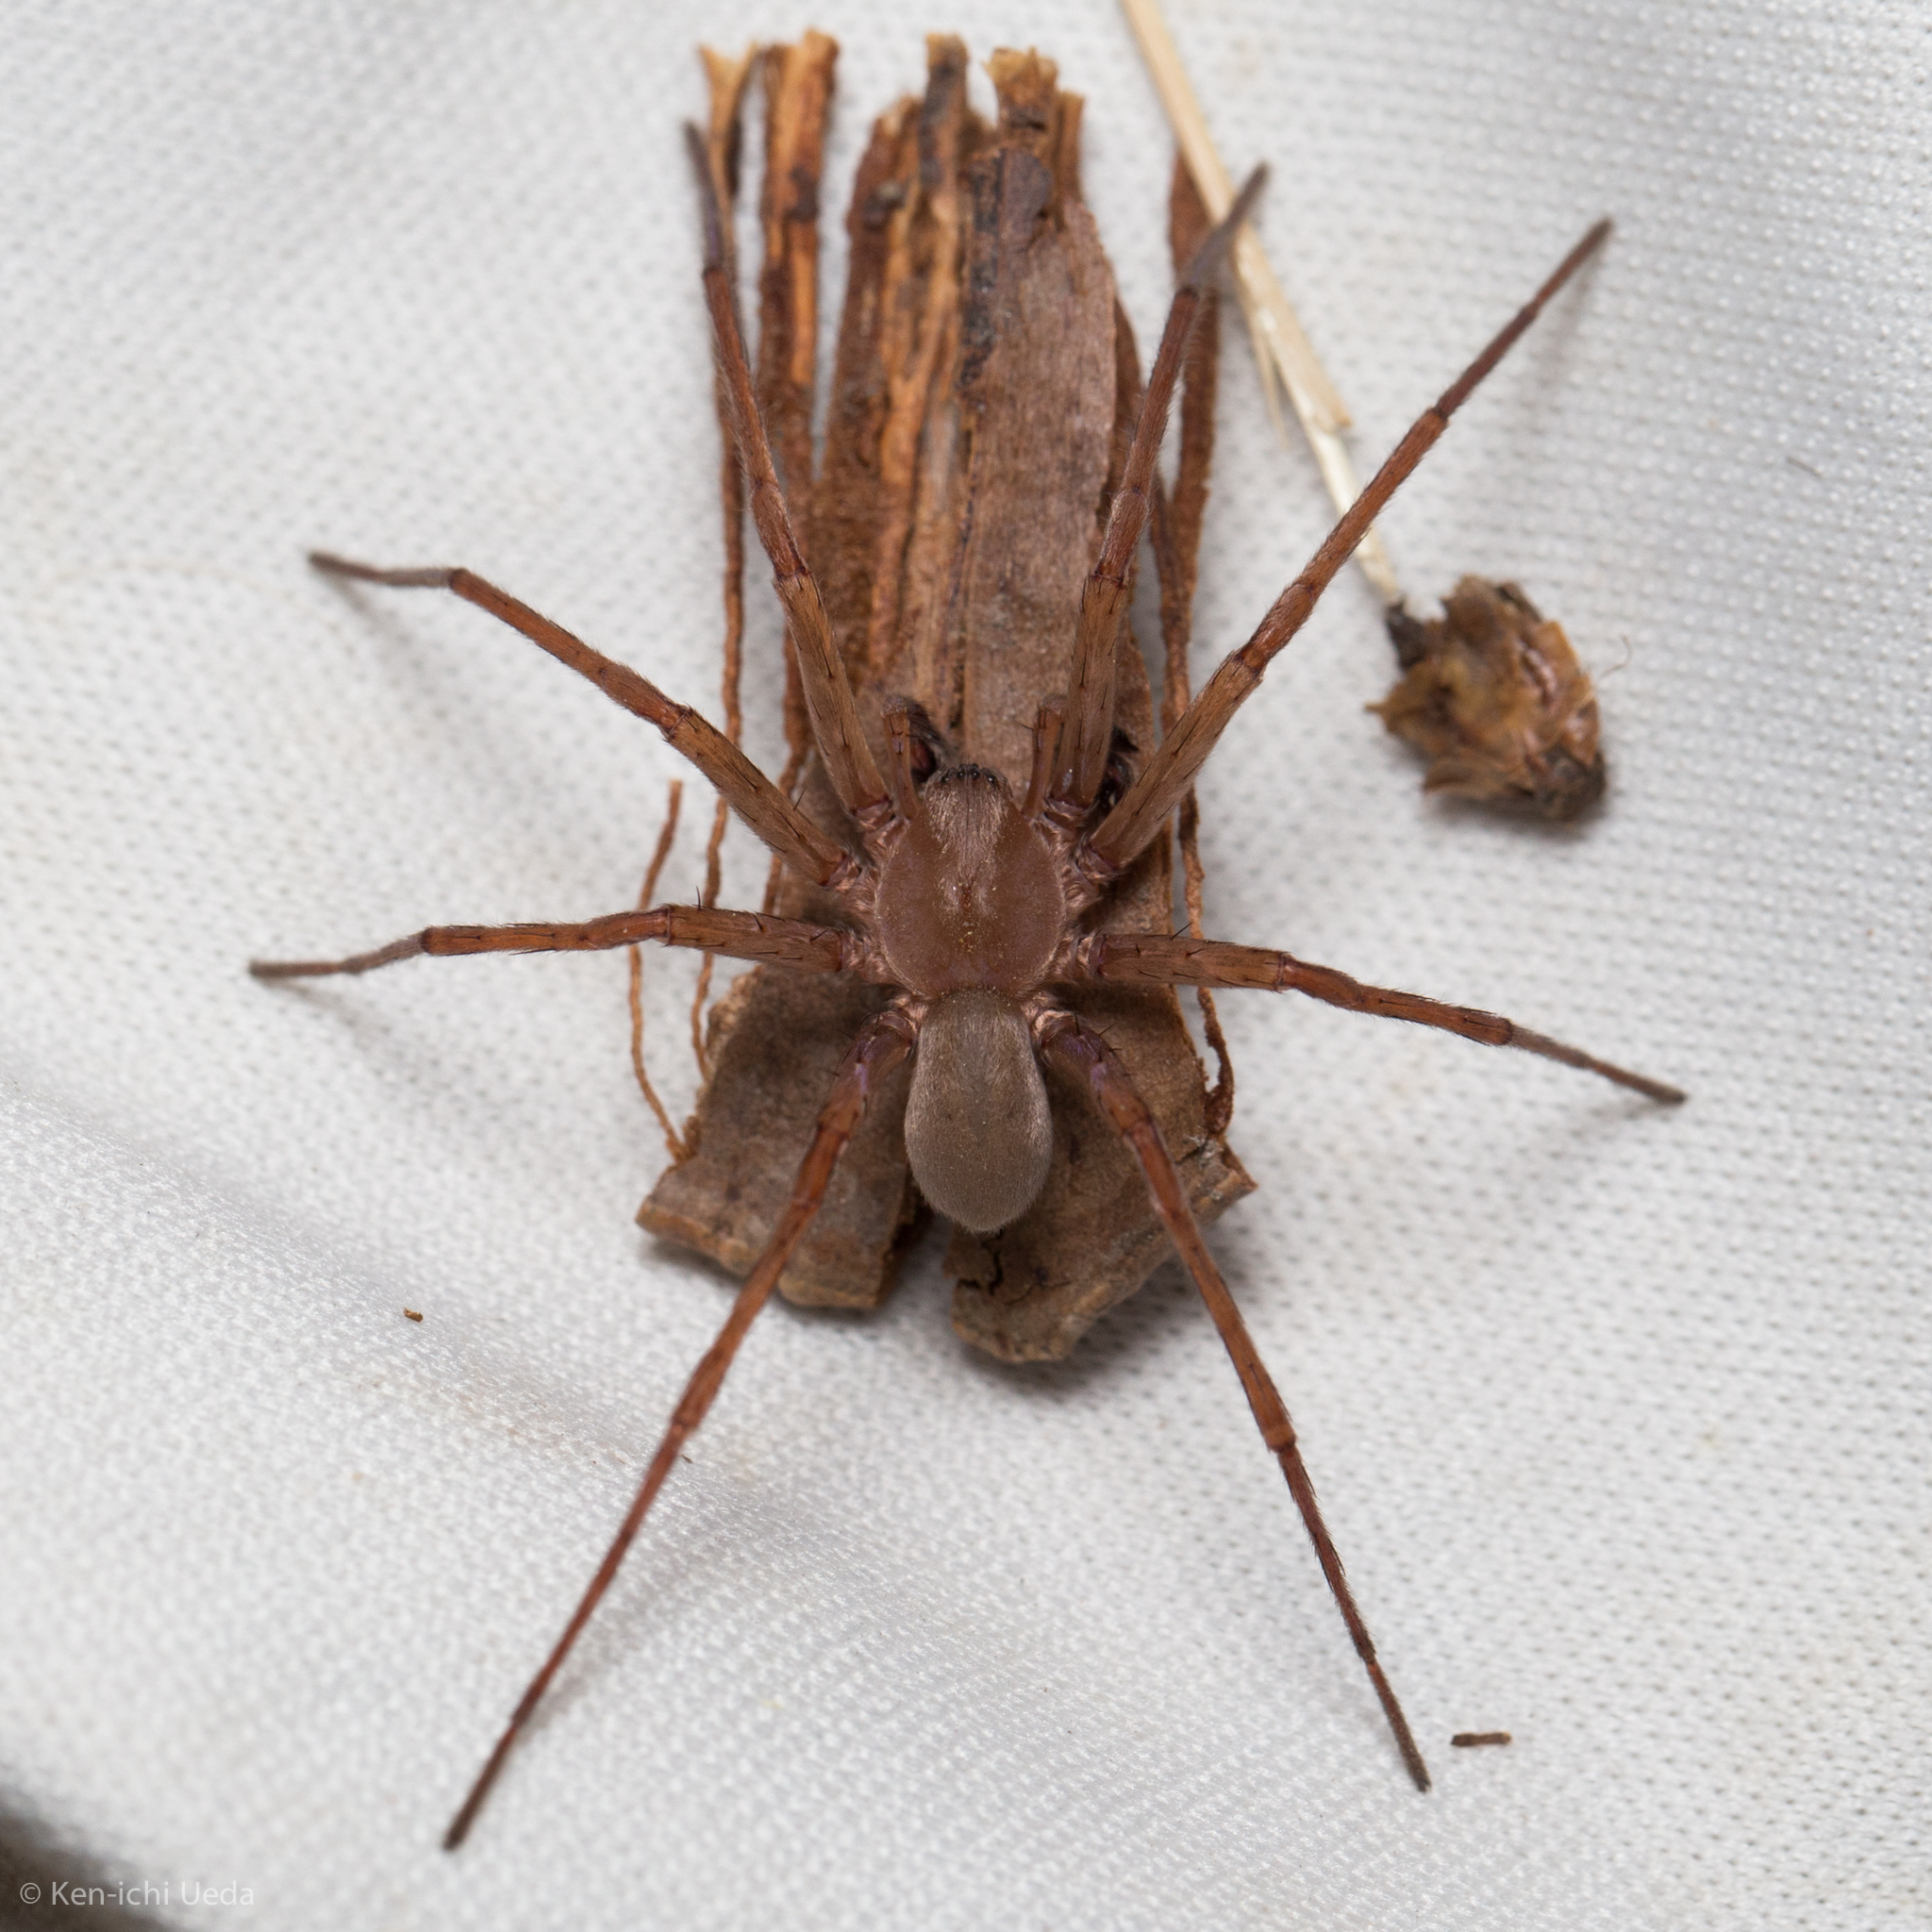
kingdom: Animalia
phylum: Arthropoda
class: Arachnida
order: Araneae
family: Zoropsidae
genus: Titiotus
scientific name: Titiotus
